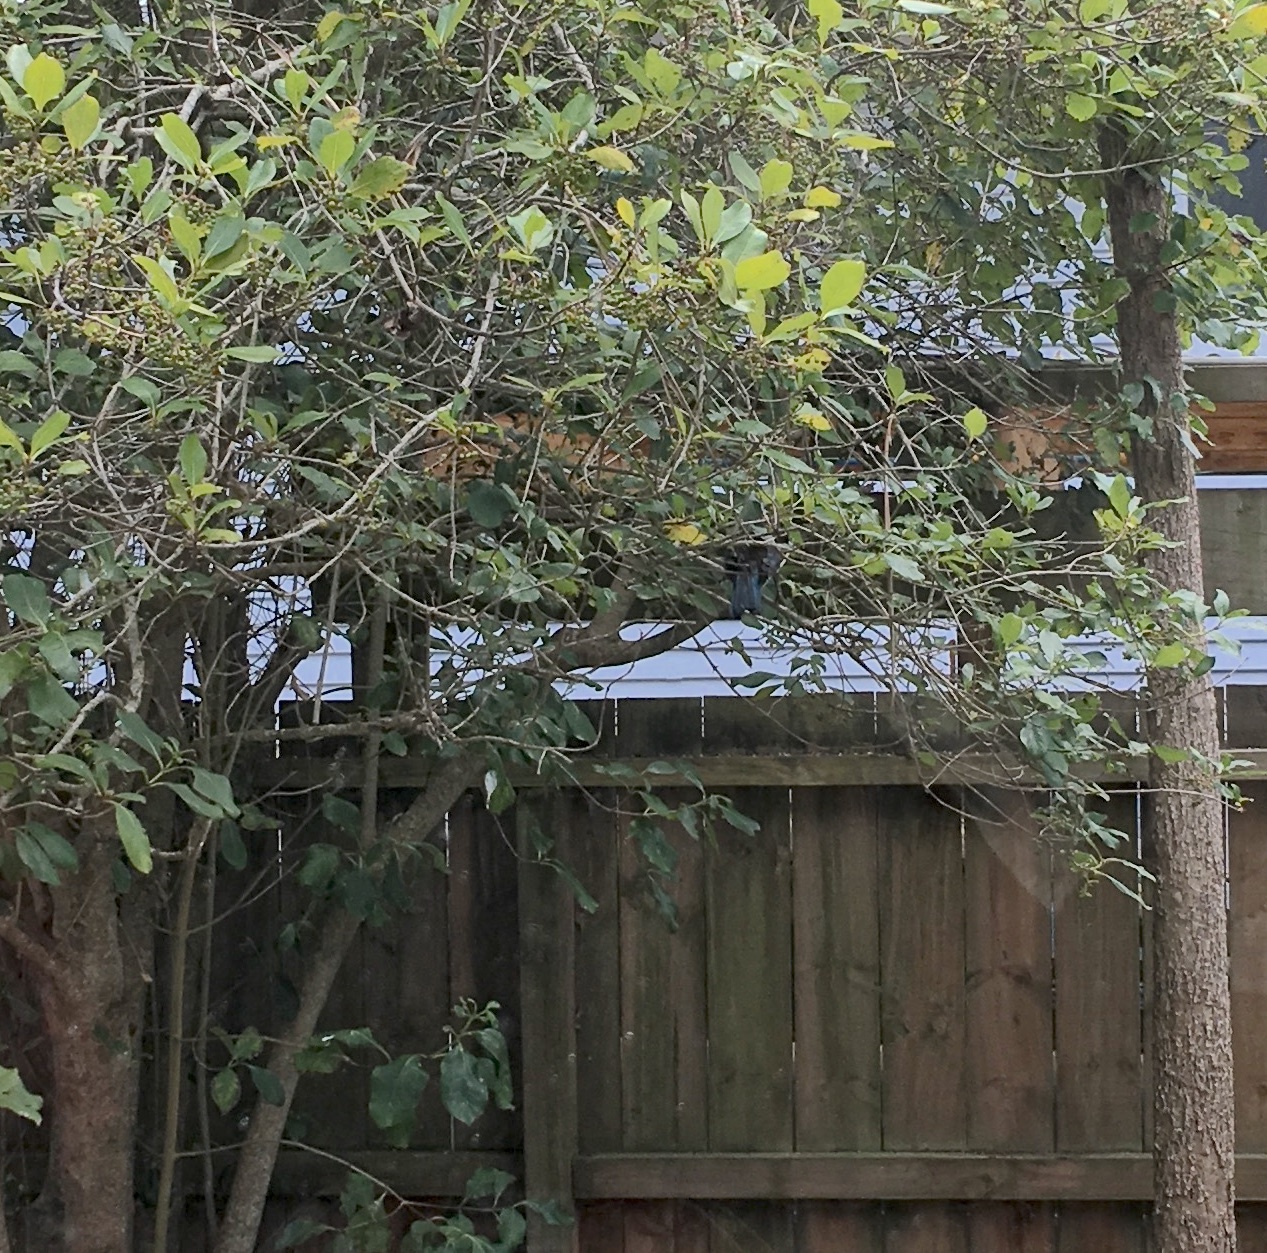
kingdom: Animalia
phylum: Chordata
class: Aves
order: Passeriformes
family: Meliphagidae
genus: Prosthemadera
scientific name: Prosthemadera novaeseelandiae
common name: Tui
